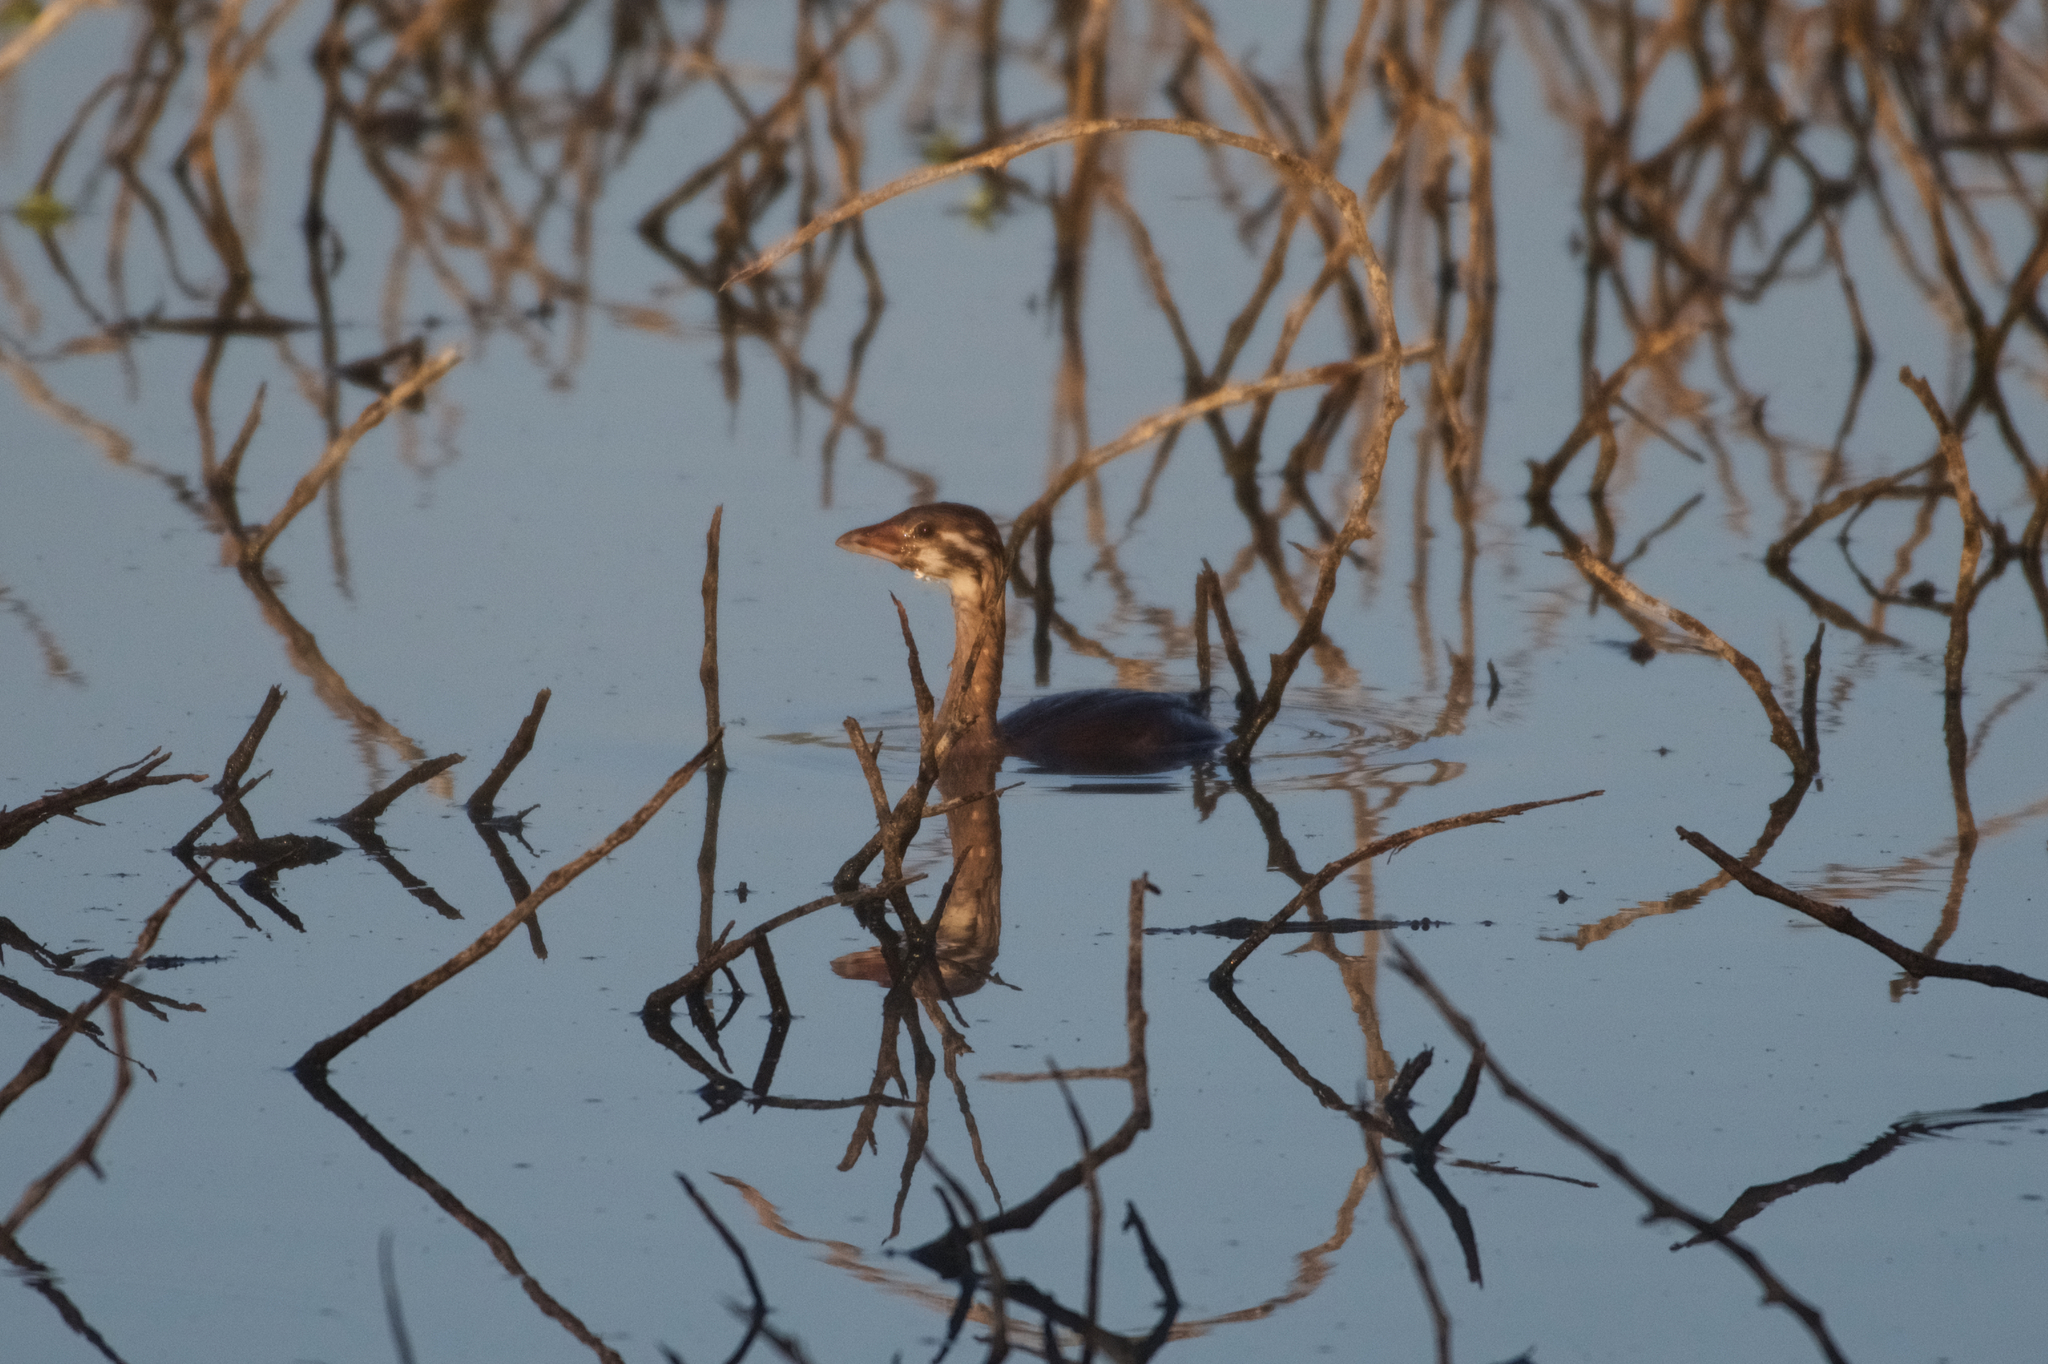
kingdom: Animalia
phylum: Chordata
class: Aves
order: Podicipediformes
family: Podicipedidae
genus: Podilymbus
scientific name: Podilymbus podiceps
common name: Pied-billed grebe
